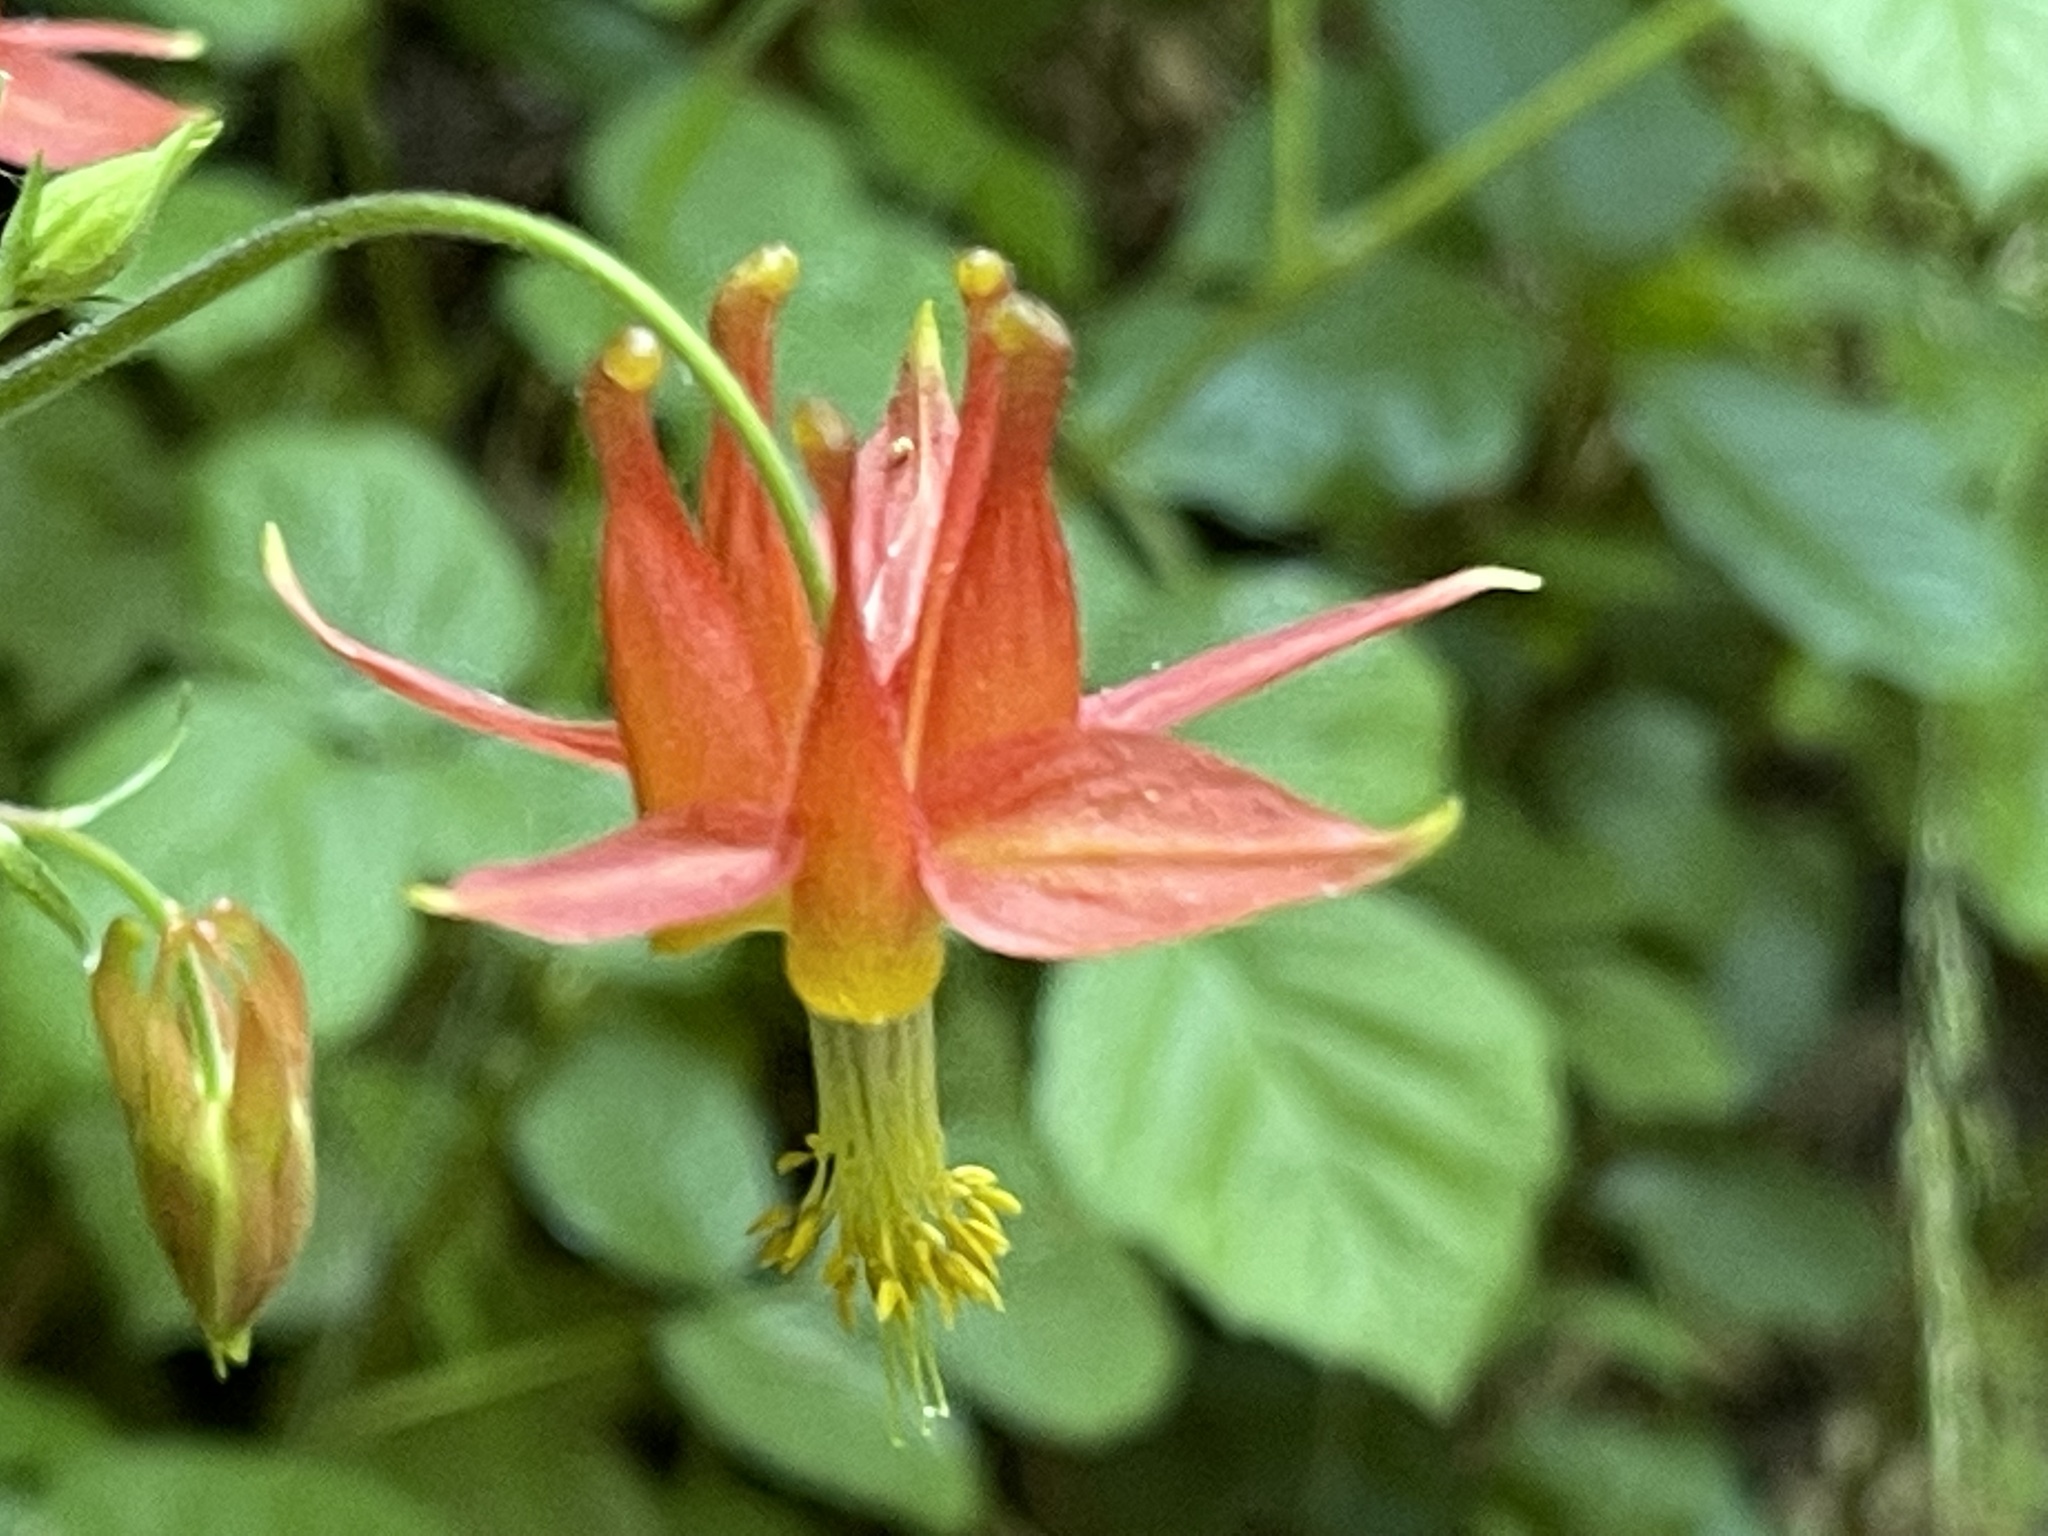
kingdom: Plantae
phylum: Tracheophyta
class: Magnoliopsida
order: Ranunculales
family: Ranunculaceae
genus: Aquilegia
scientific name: Aquilegia formosa
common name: Sitka columbine
